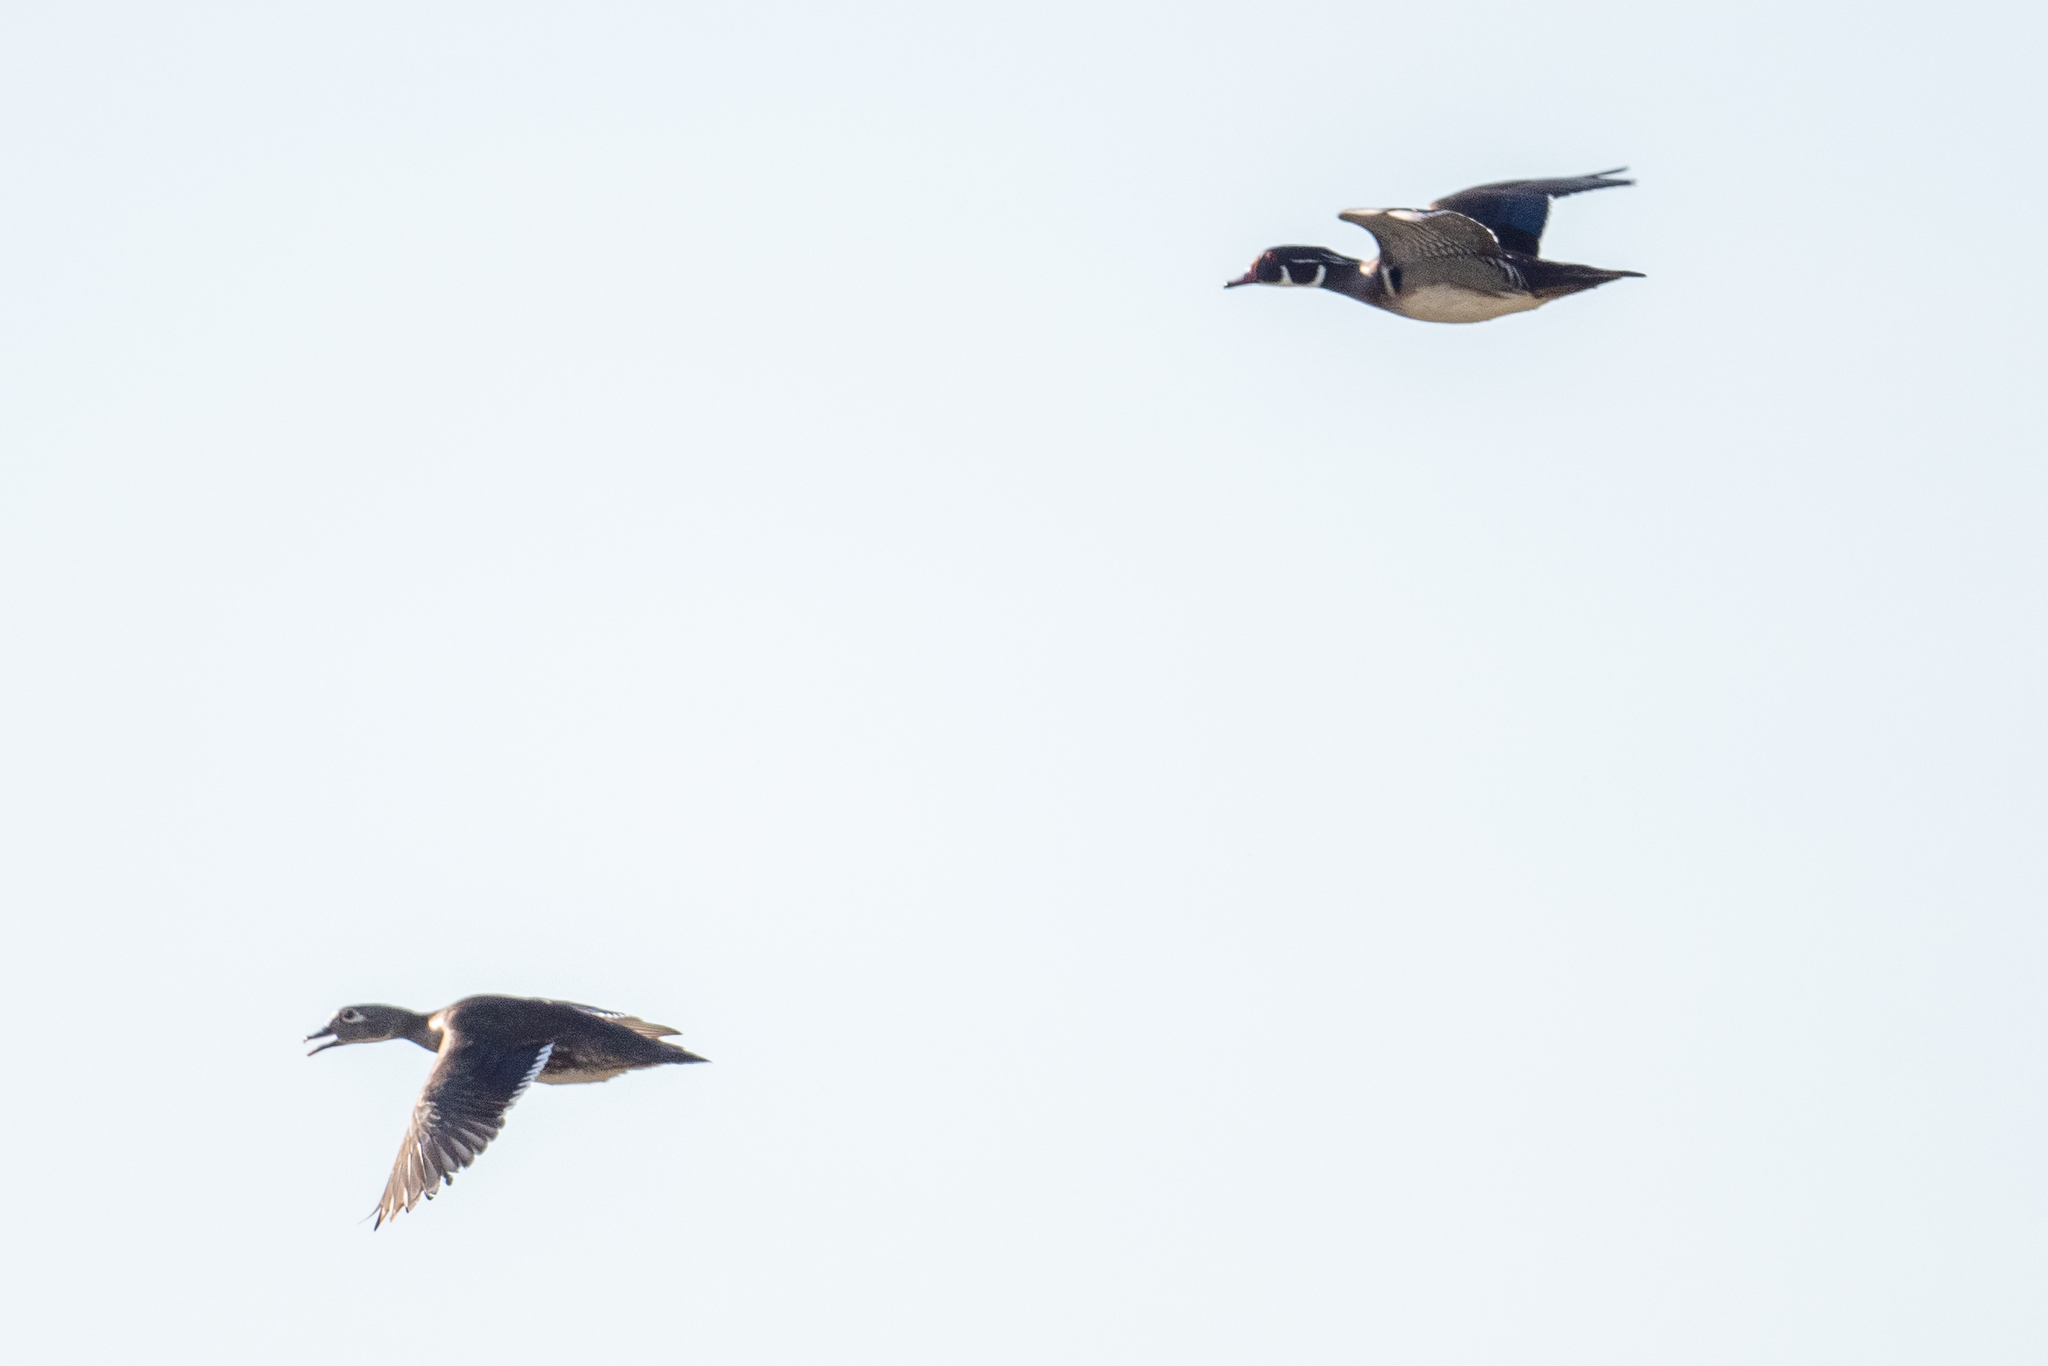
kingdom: Animalia
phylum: Chordata
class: Aves
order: Anseriformes
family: Anatidae
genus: Aix
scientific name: Aix sponsa
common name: Wood duck
